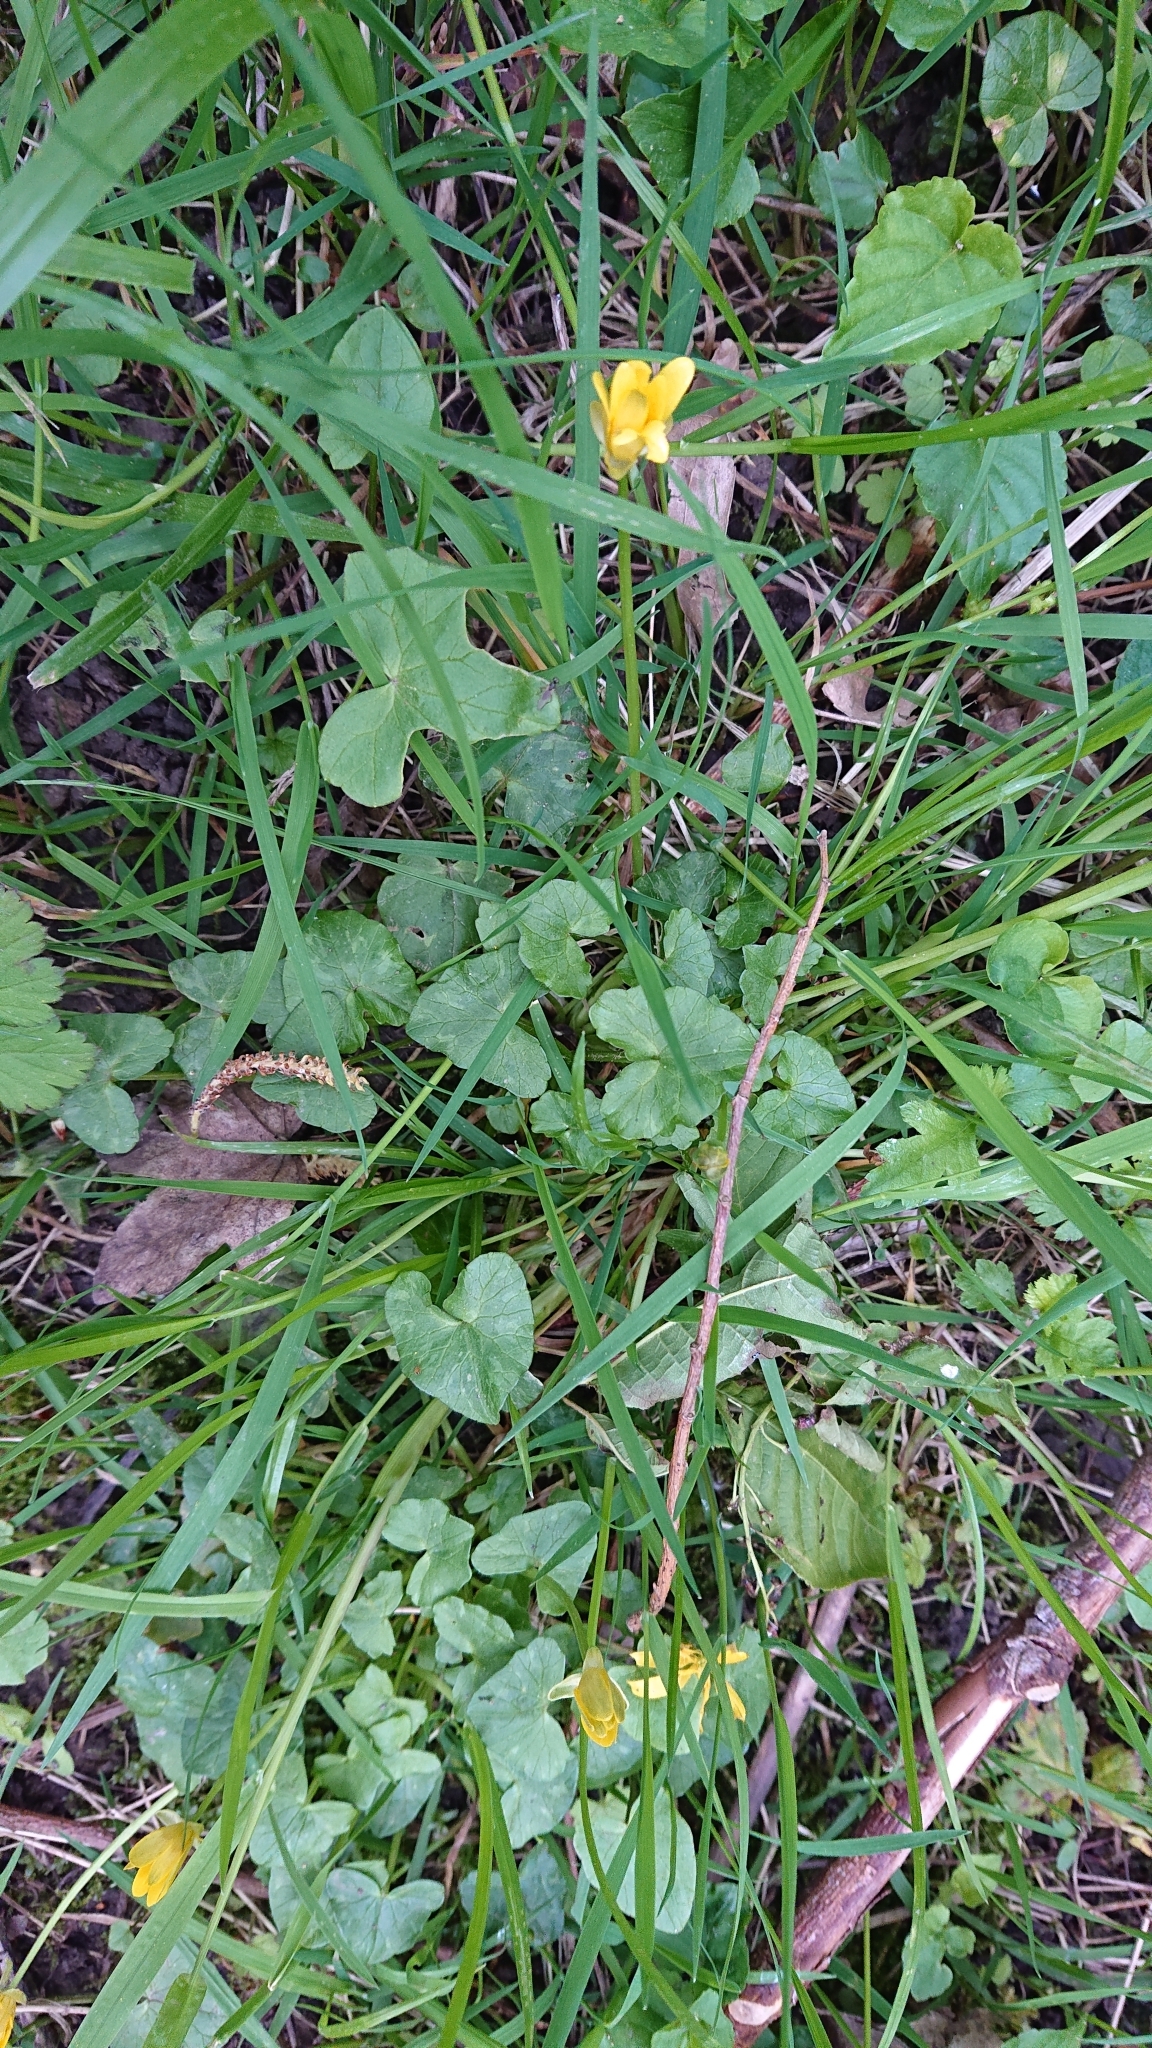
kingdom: Plantae
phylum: Tracheophyta
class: Magnoliopsida
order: Ranunculales
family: Ranunculaceae
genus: Ficaria
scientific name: Ficaria verna
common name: Lesser celandine
